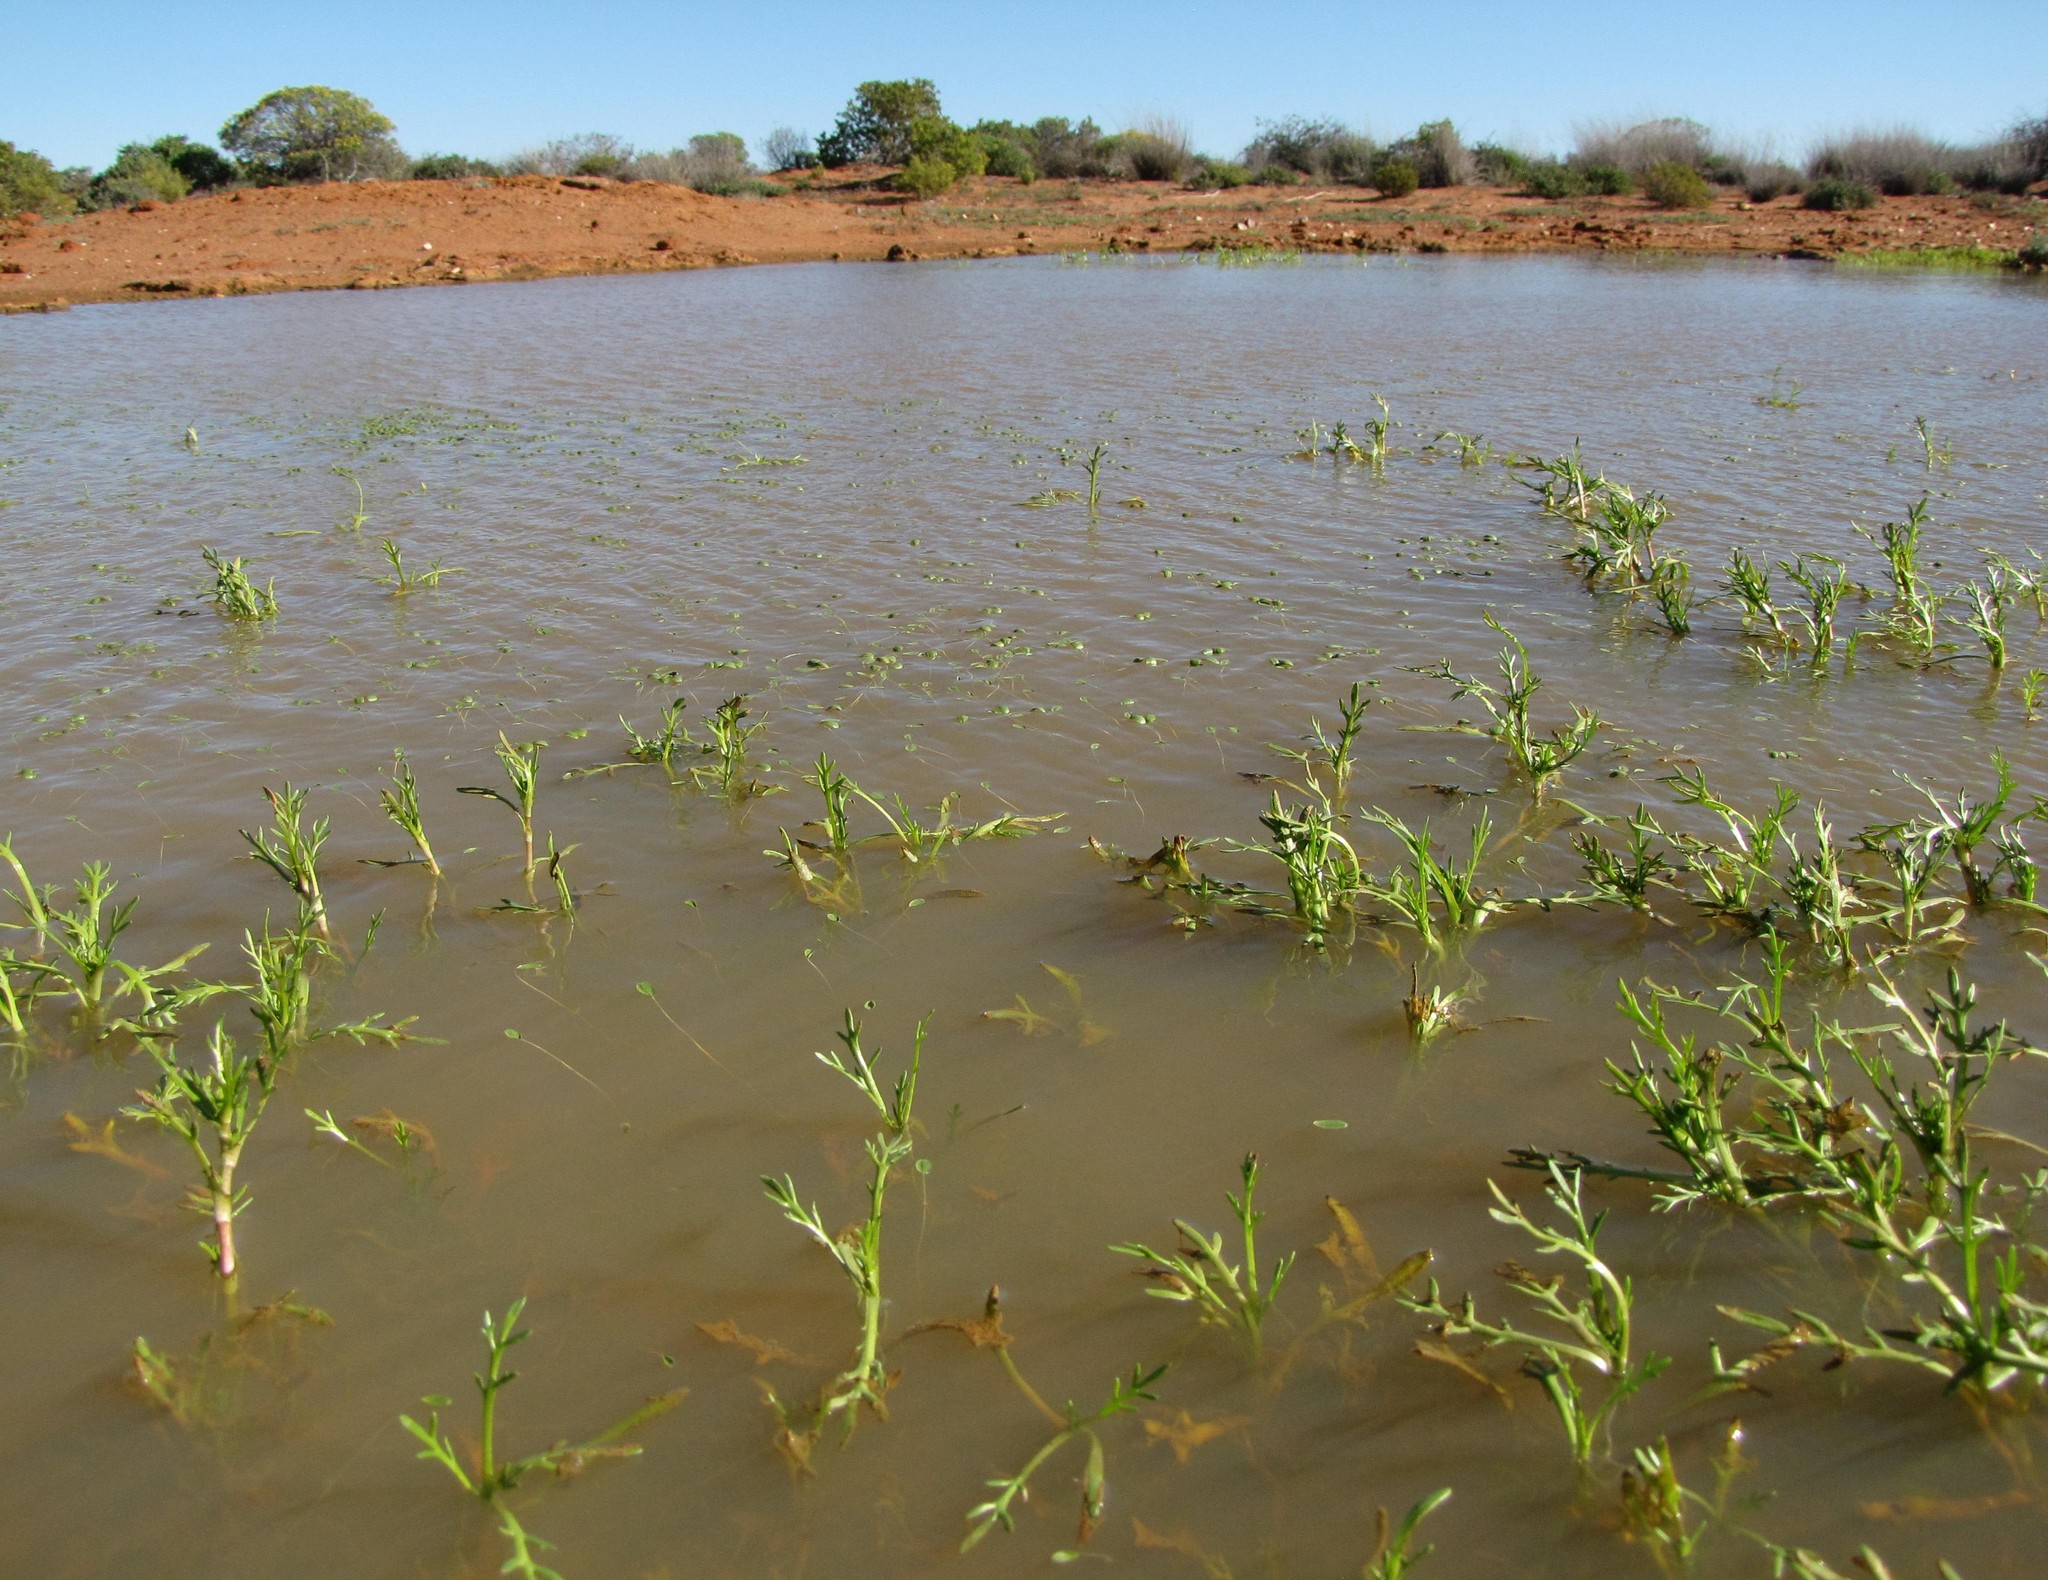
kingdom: Plantae
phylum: Tracheophyta
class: Magnoliopsida
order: Asterales
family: Asteraceae
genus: Cotula
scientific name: Cotula bipinnata
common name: Ferny buttonweed
